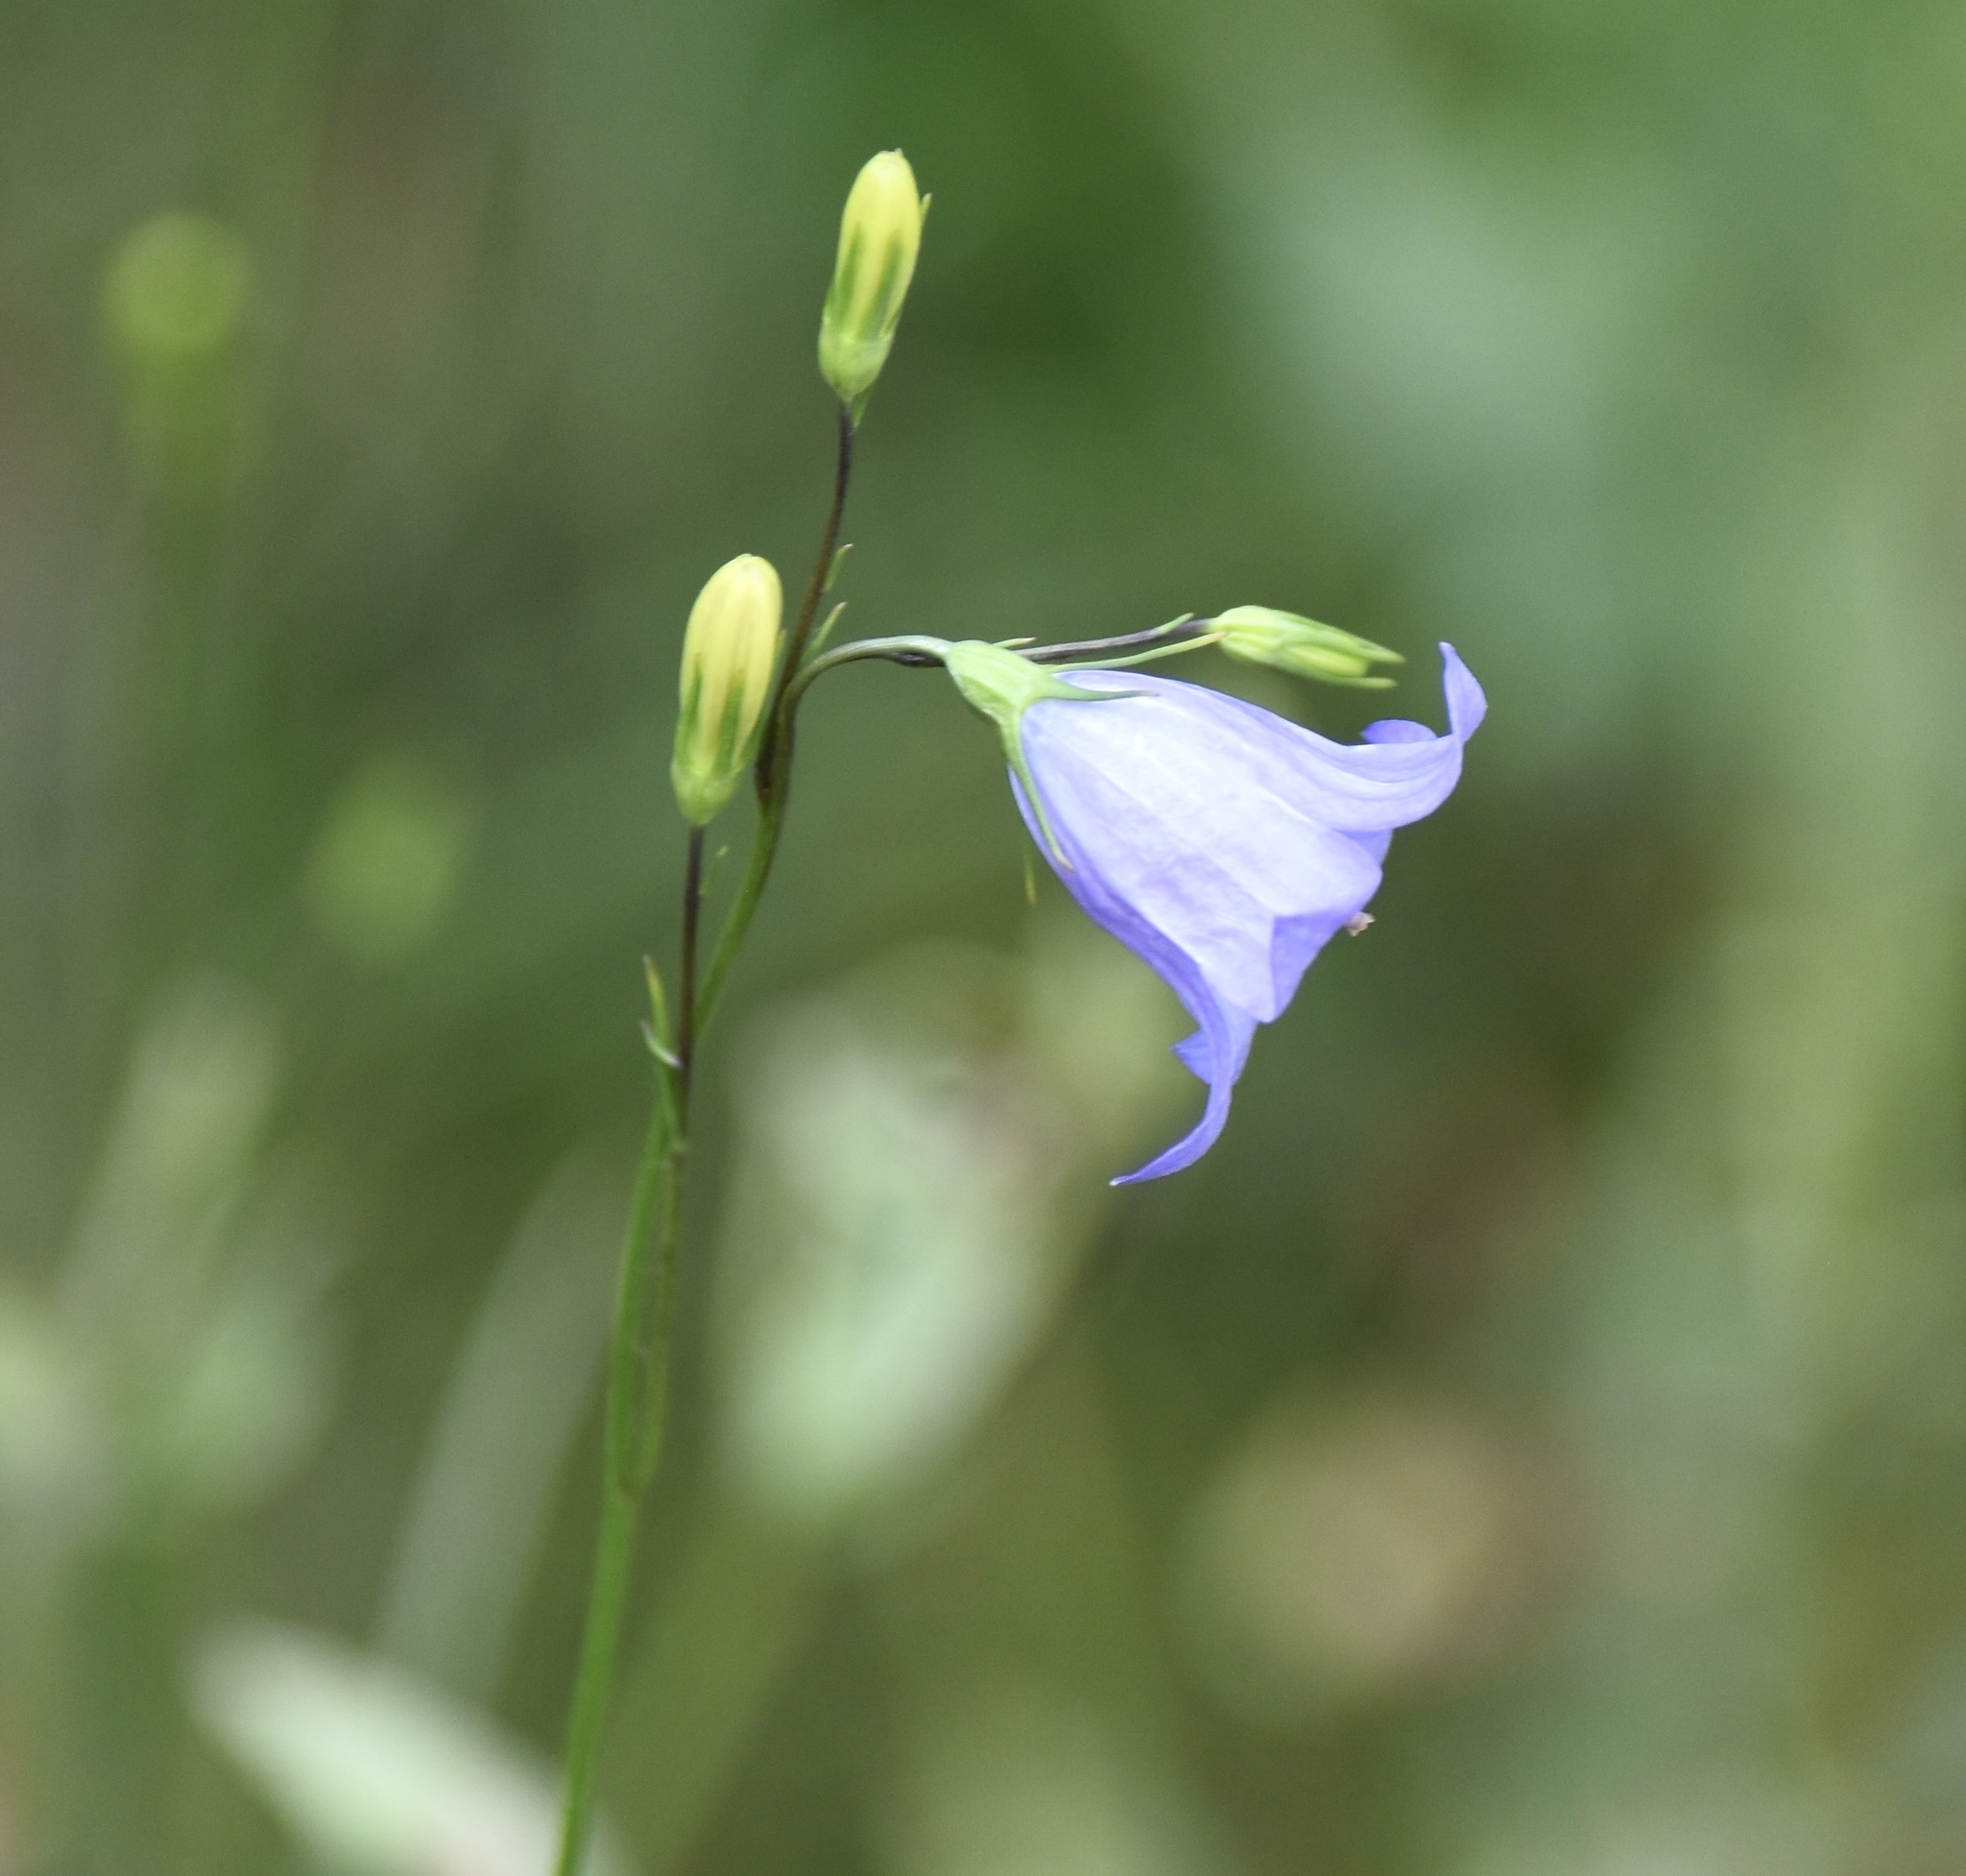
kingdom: Plantae
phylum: Tracheophyta
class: Magnoliopsida
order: Asterales
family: Campanulaceae
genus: Campanula
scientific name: Campanula alaskana
